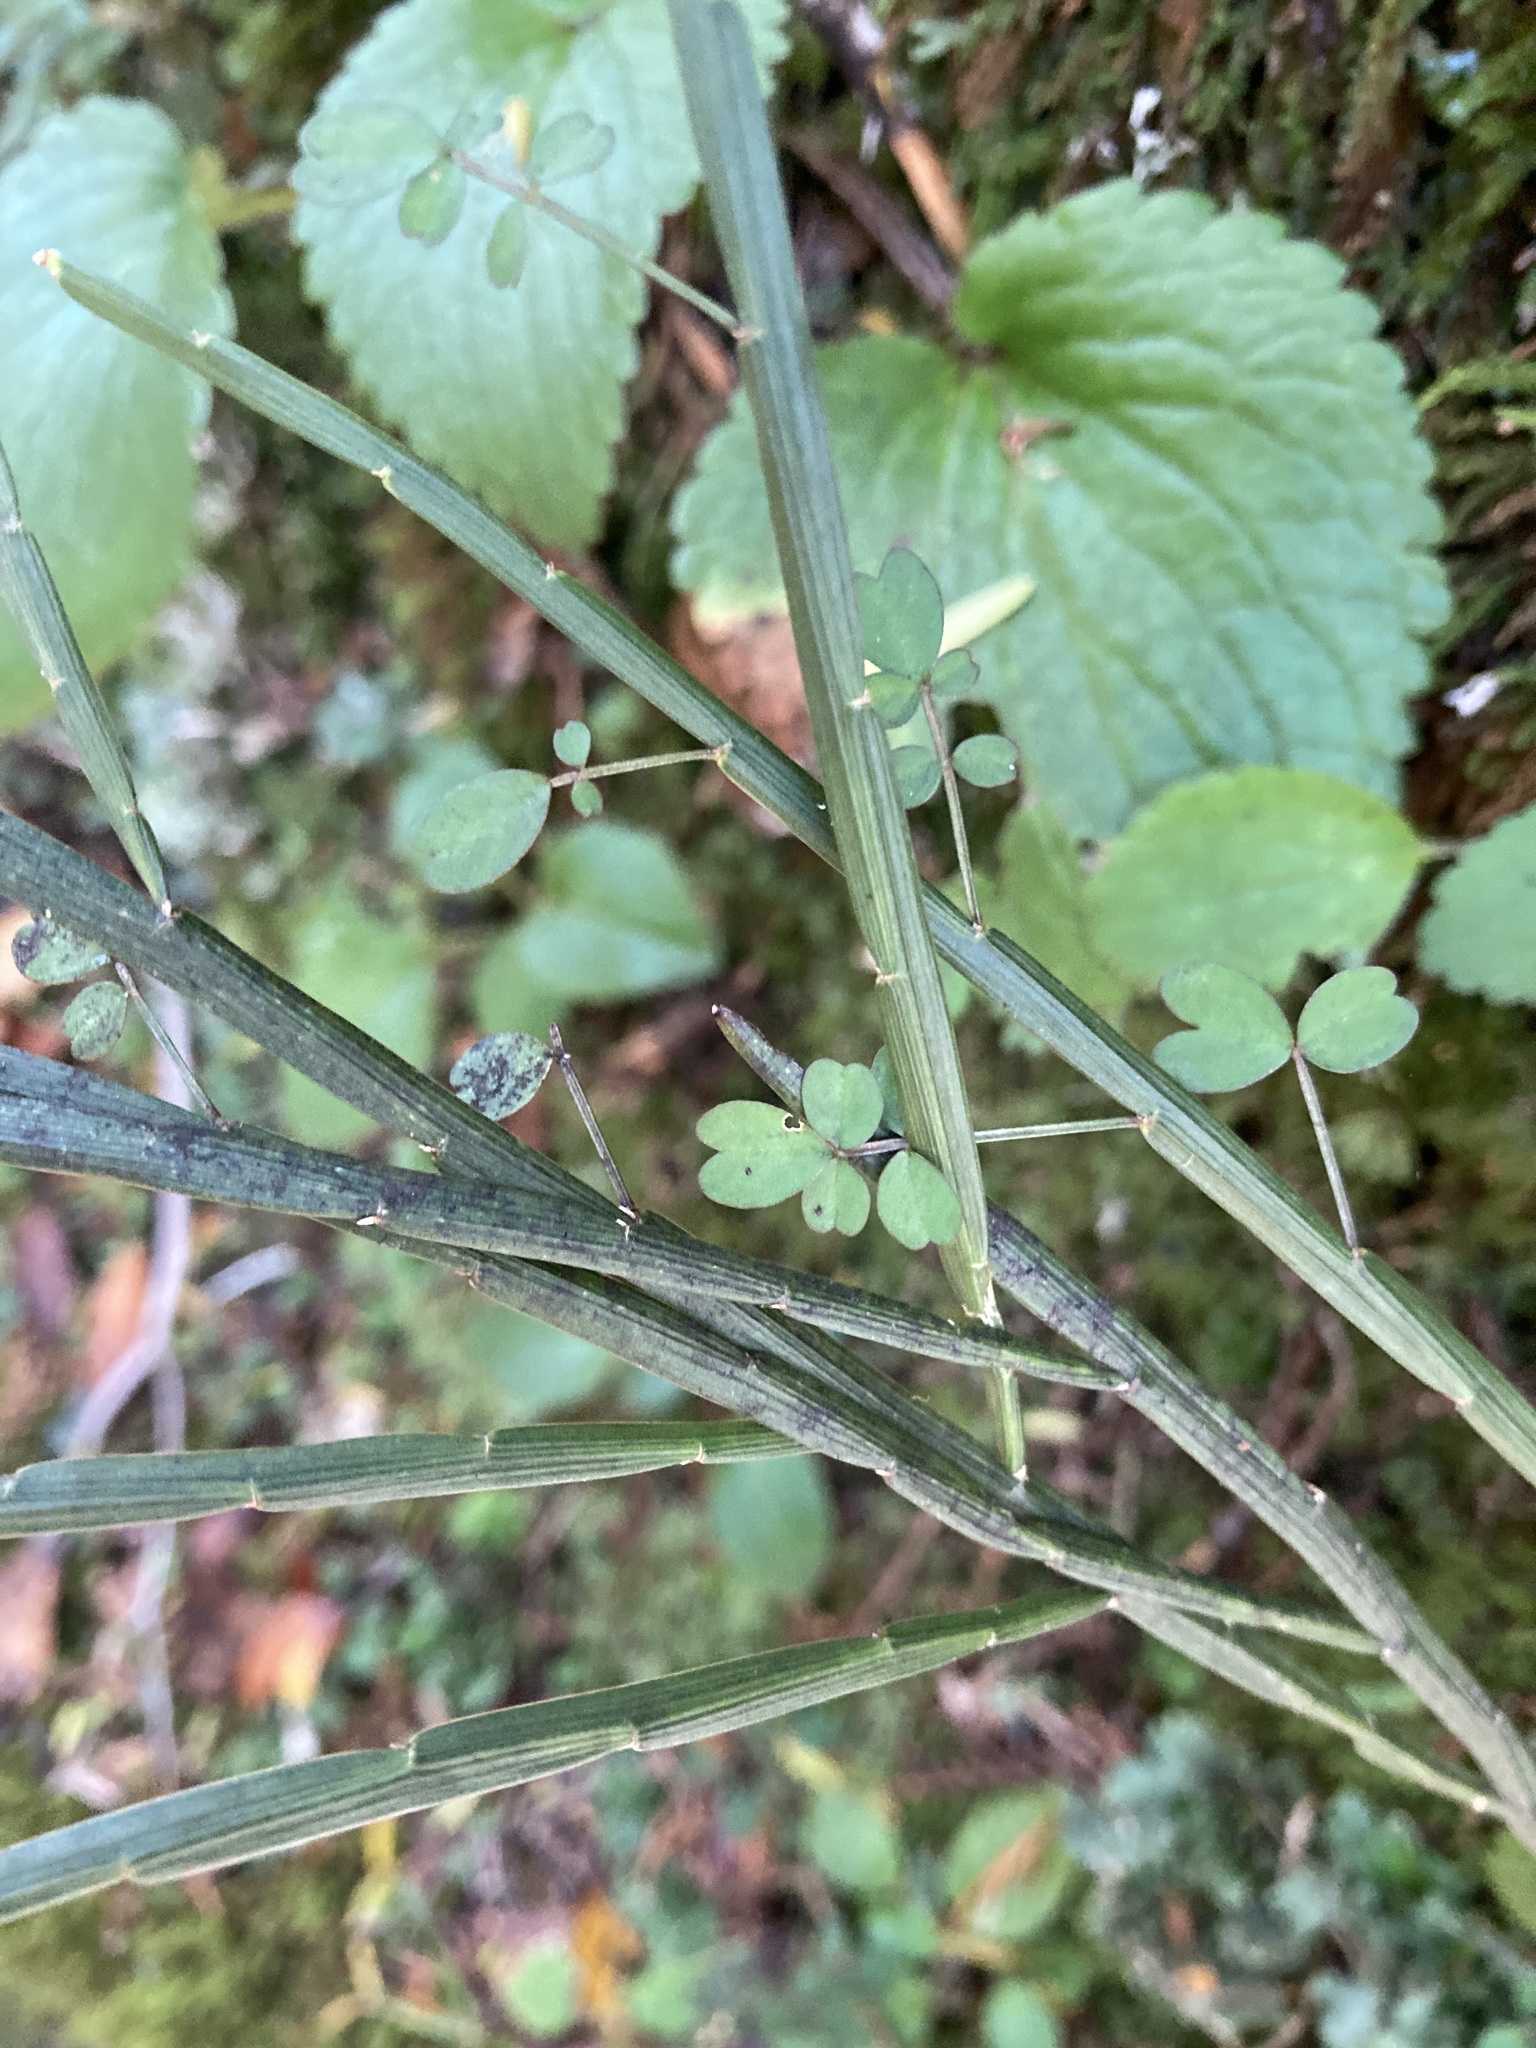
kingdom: Plantae
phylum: Tracheophyta
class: Magnoliopsida
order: Fabales
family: Fabaceae
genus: Carmichaelia
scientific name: Carmichaelia australis
